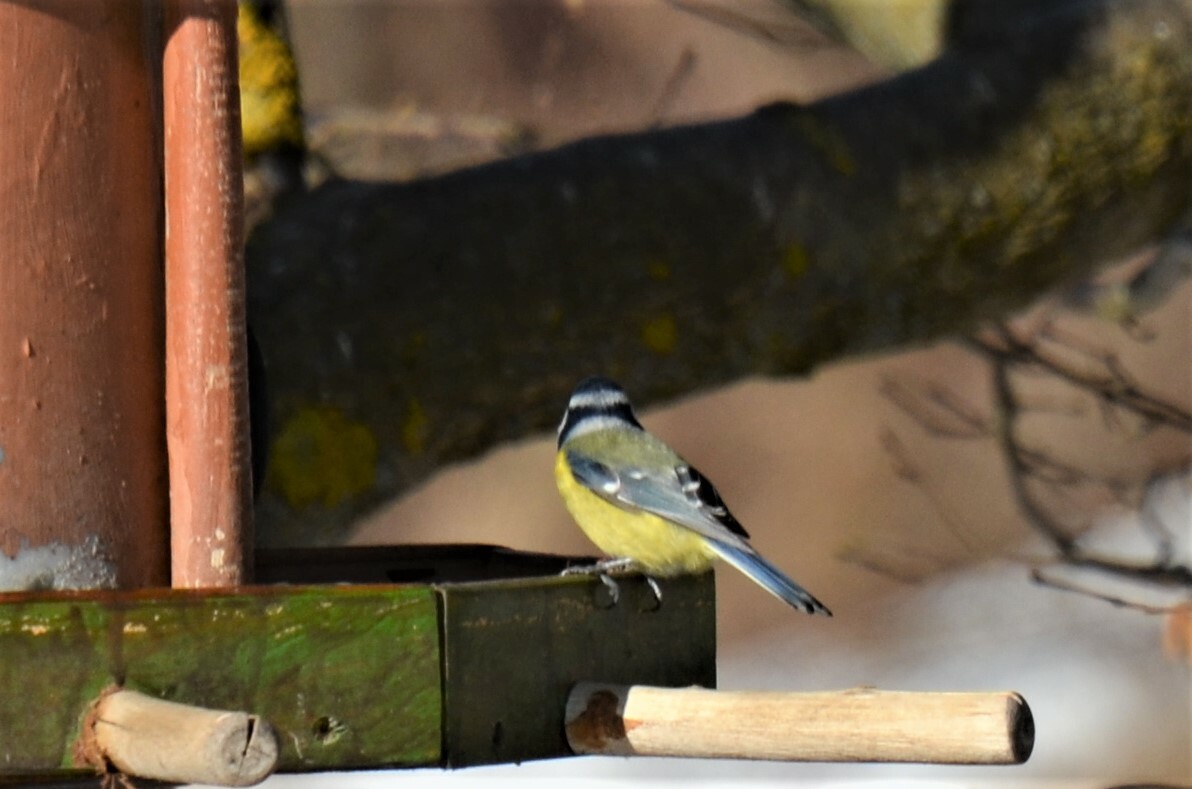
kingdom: Animalia
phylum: Chordata
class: Aves
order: Passeriformes
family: Paridae
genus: Cyanistes
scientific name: Cyanistes caeruleus
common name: Eurasian blue tit
